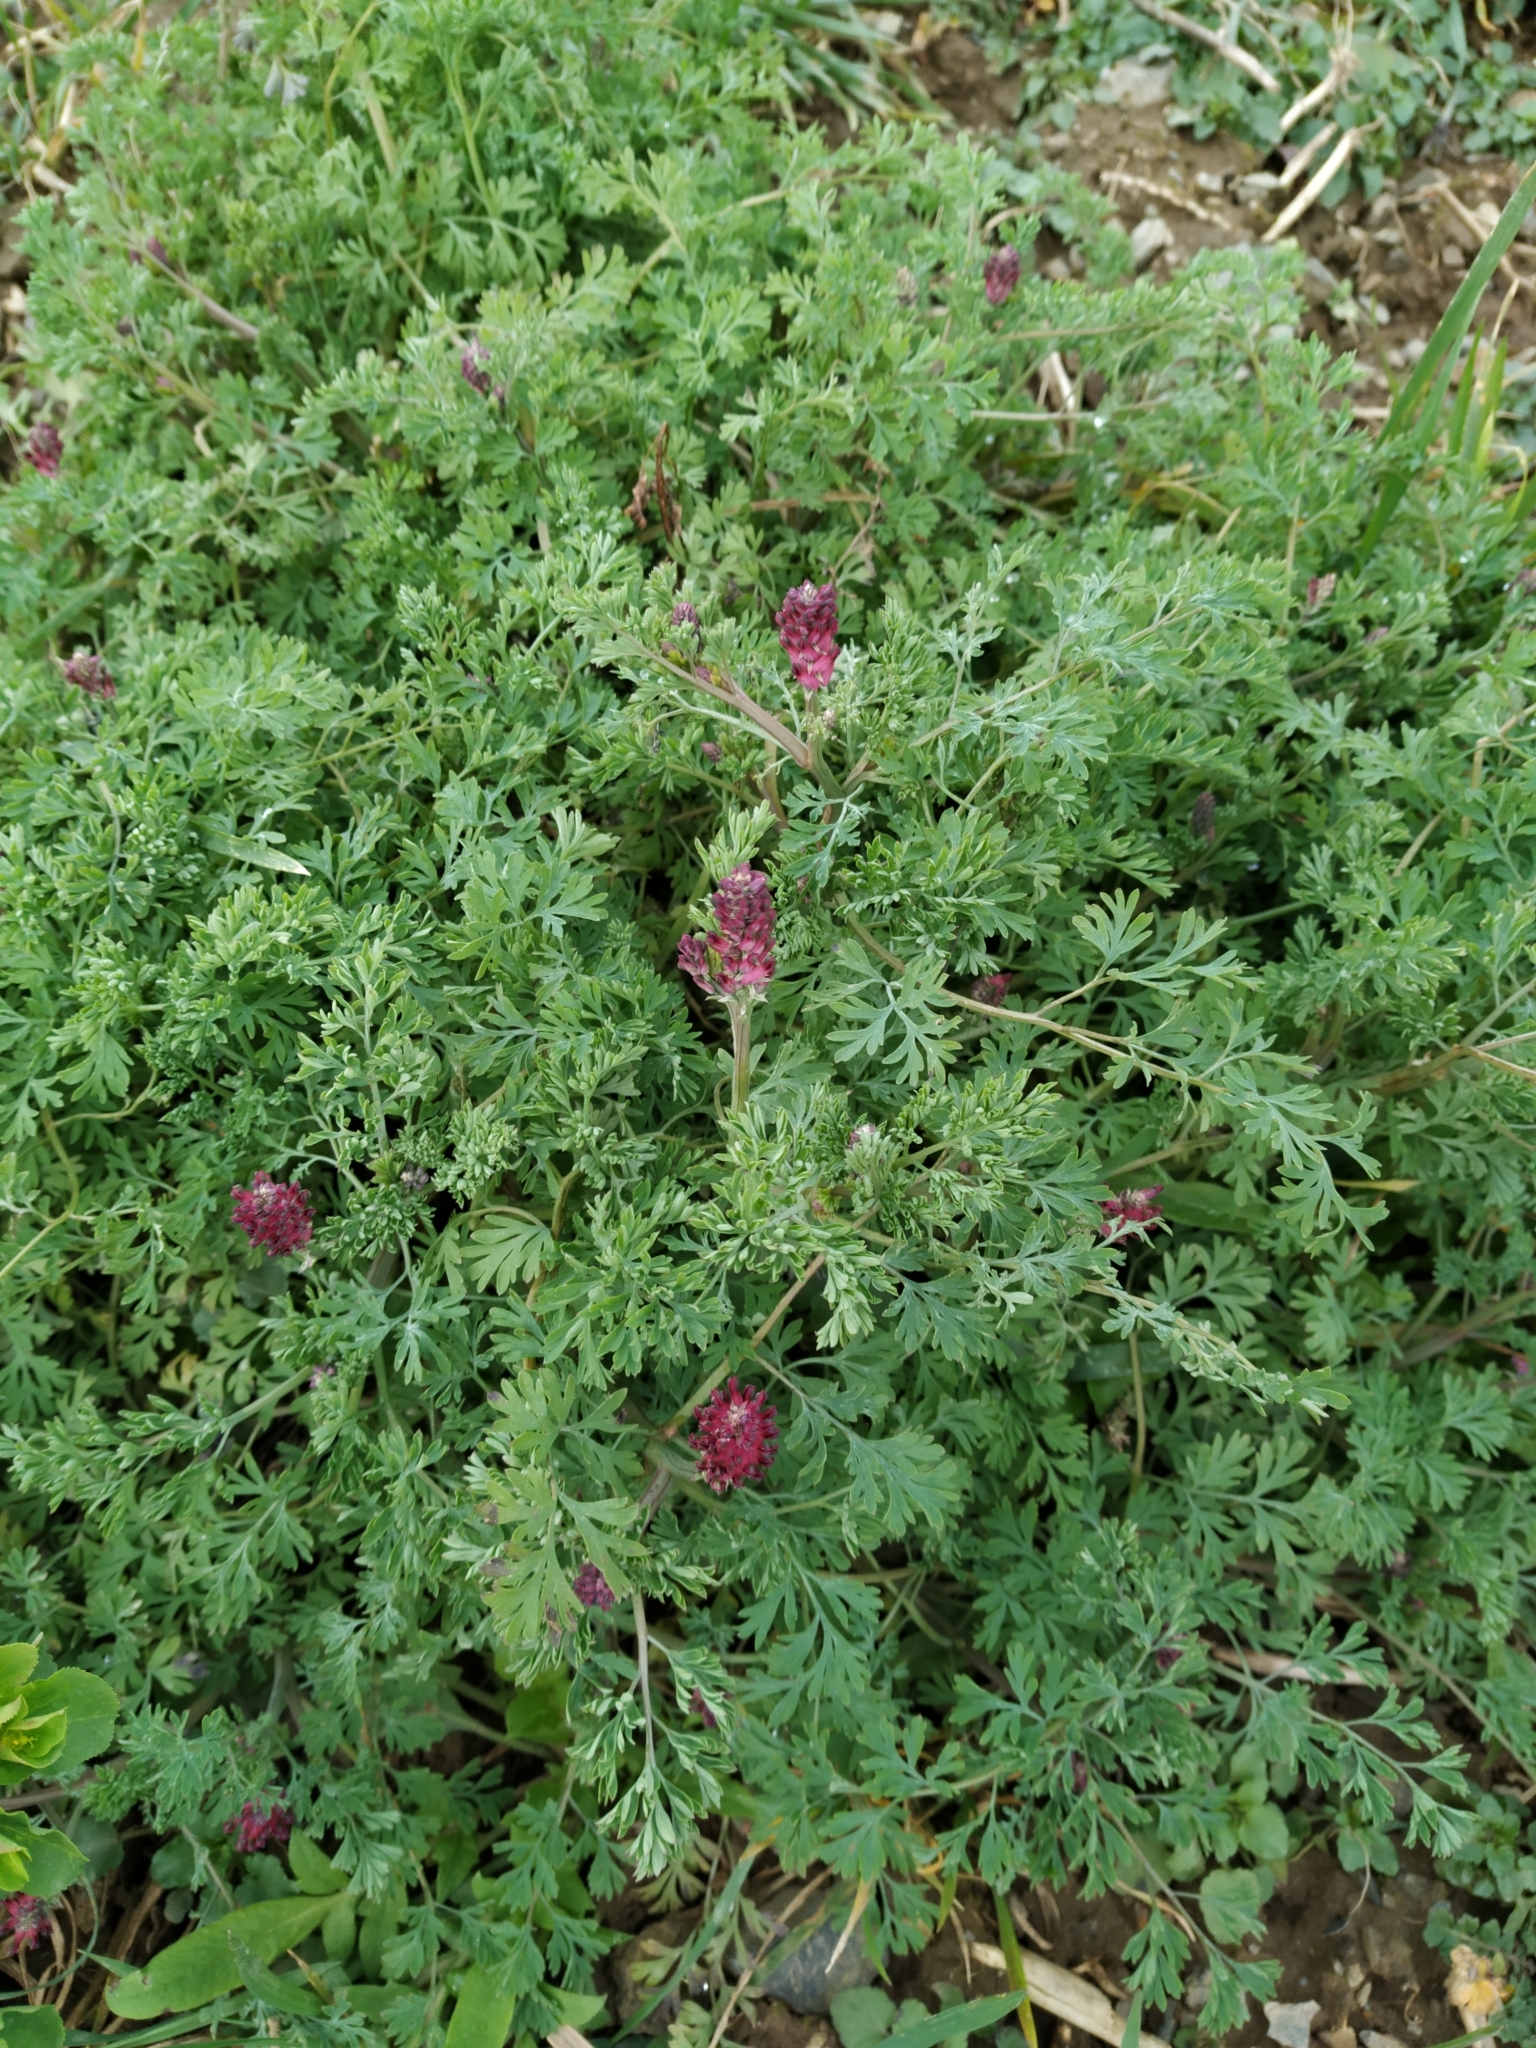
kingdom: Plantae
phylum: Tracheophyta
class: Magnoliopsida
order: Ranunculales
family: Papaveraceae
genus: Fumaria
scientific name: Fumaria officinalis
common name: Common fumitory
